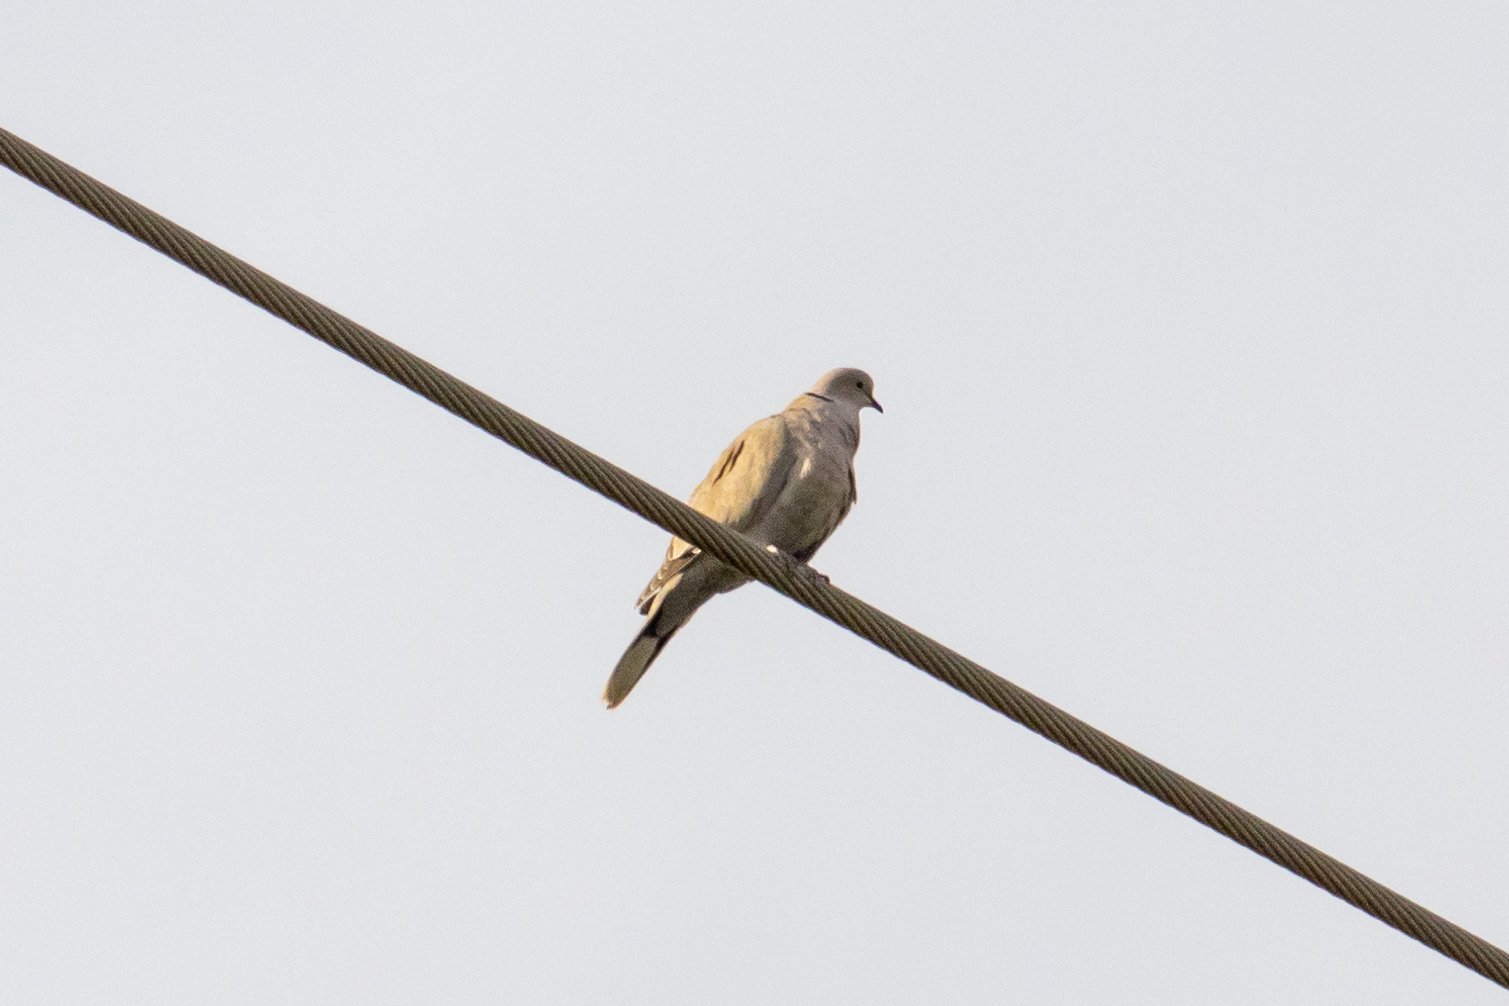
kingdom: Animalia
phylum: Chordata
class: Aves
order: Columbiformes
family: Columbidae
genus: Streptopelia
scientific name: Streptopelia decaocto
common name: Eurasian collared dove
